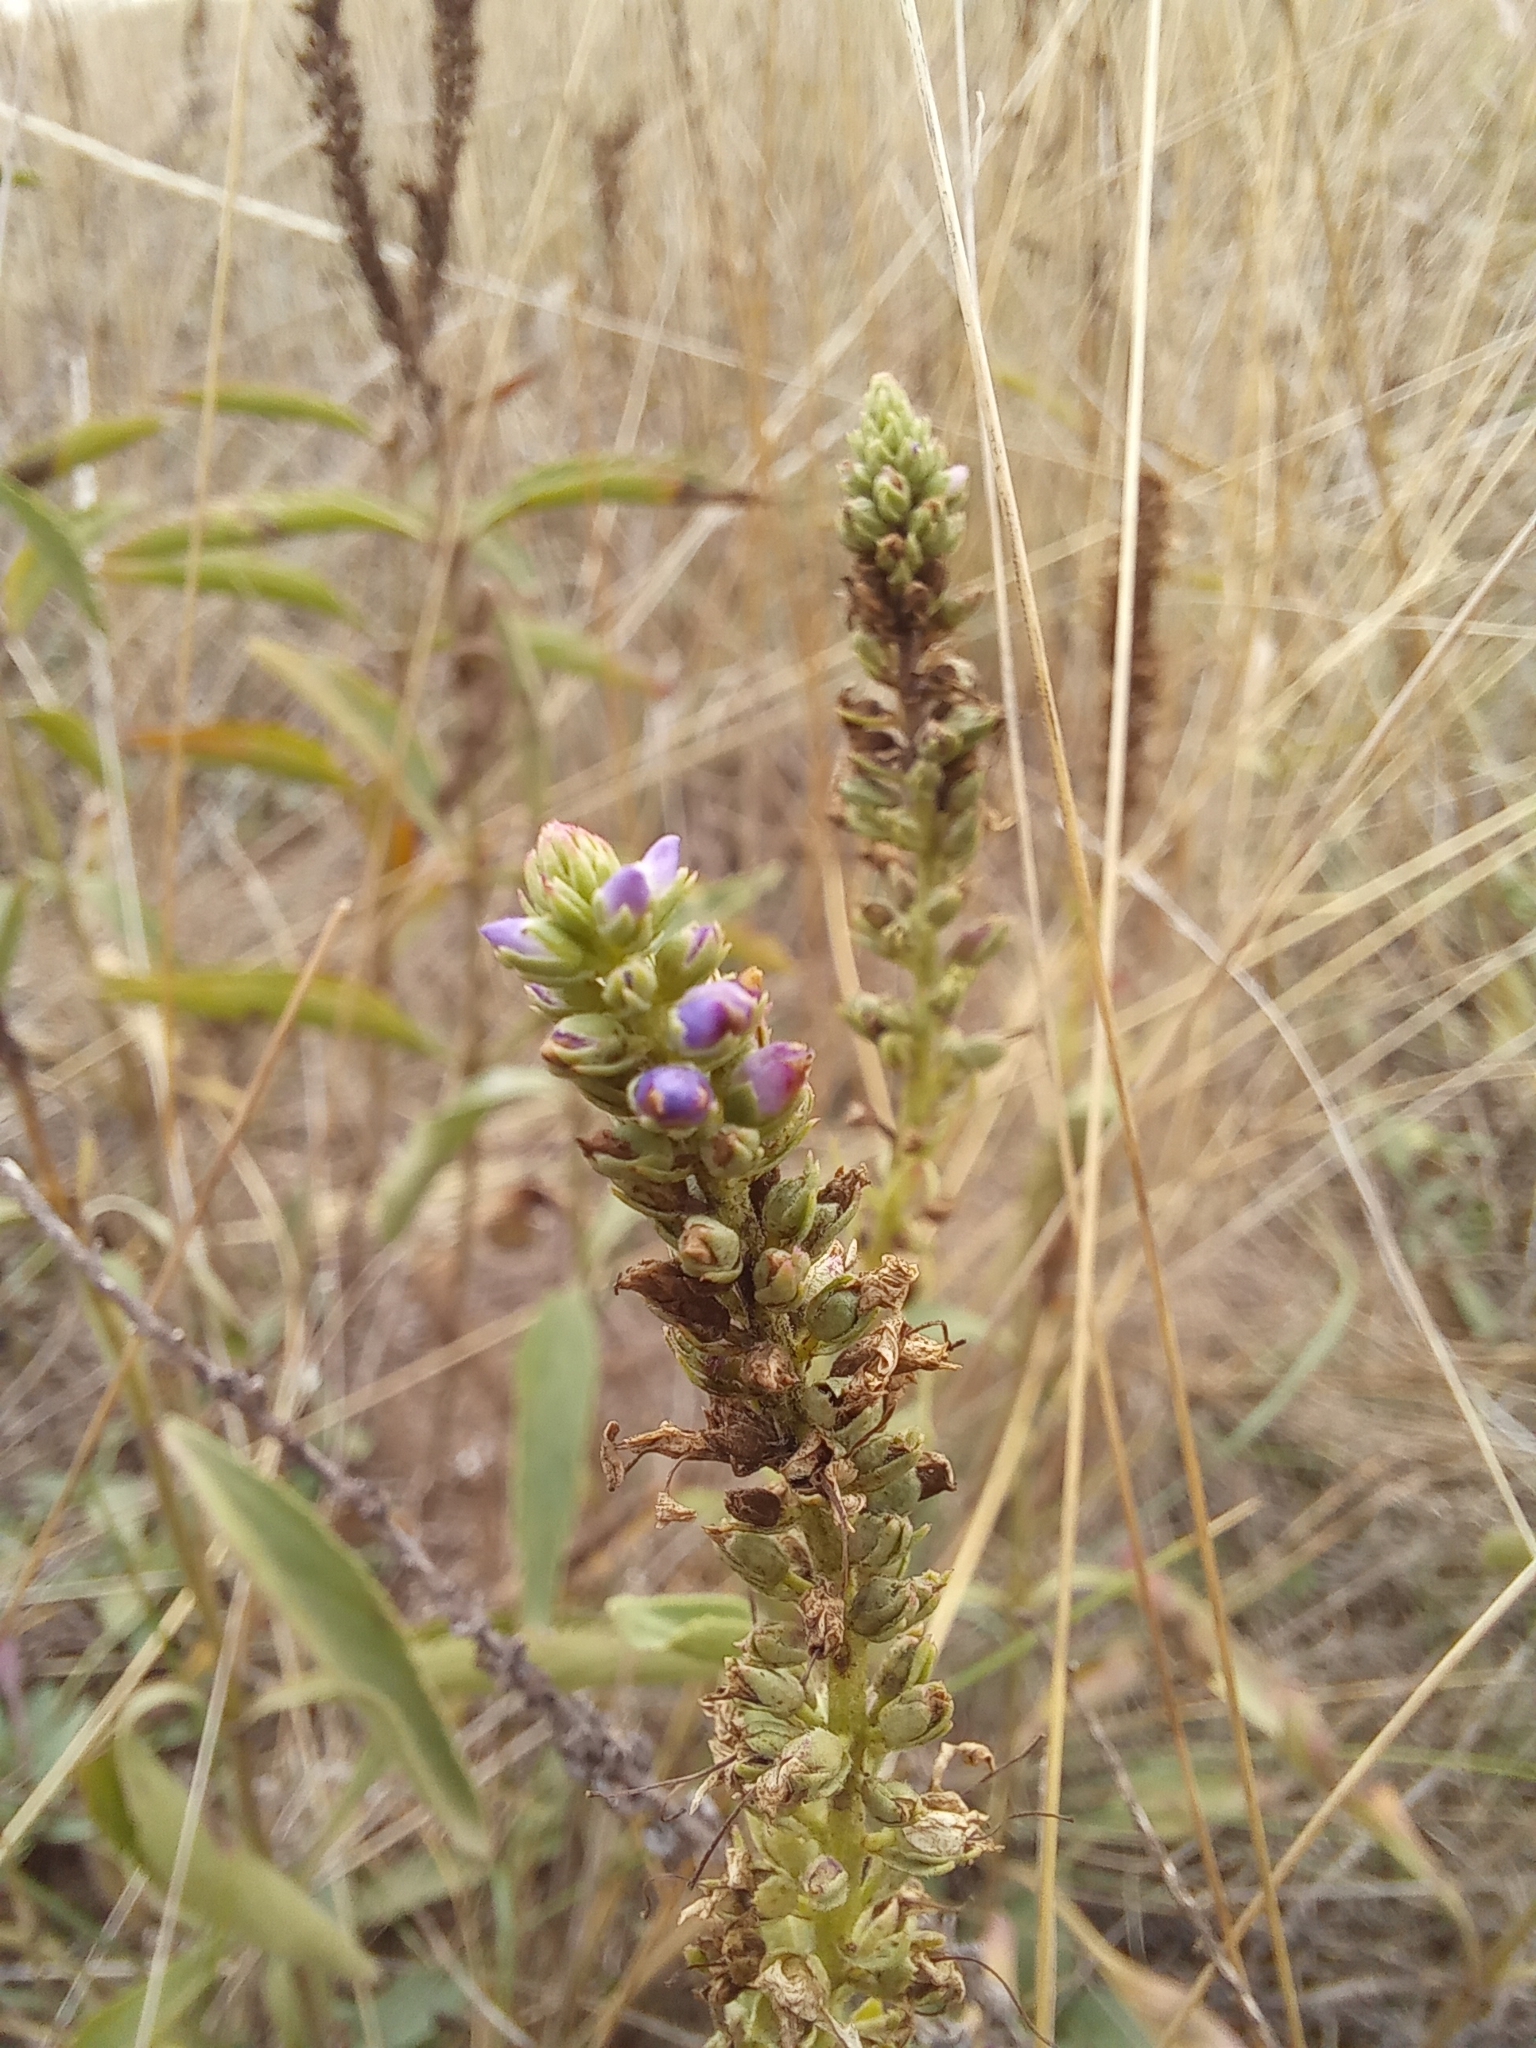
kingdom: Plantae
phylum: Tracheophyta
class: Magnoliopsida
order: Lamiales
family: Plantaginaceae
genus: Veronica
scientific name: Veronica barrelieri
